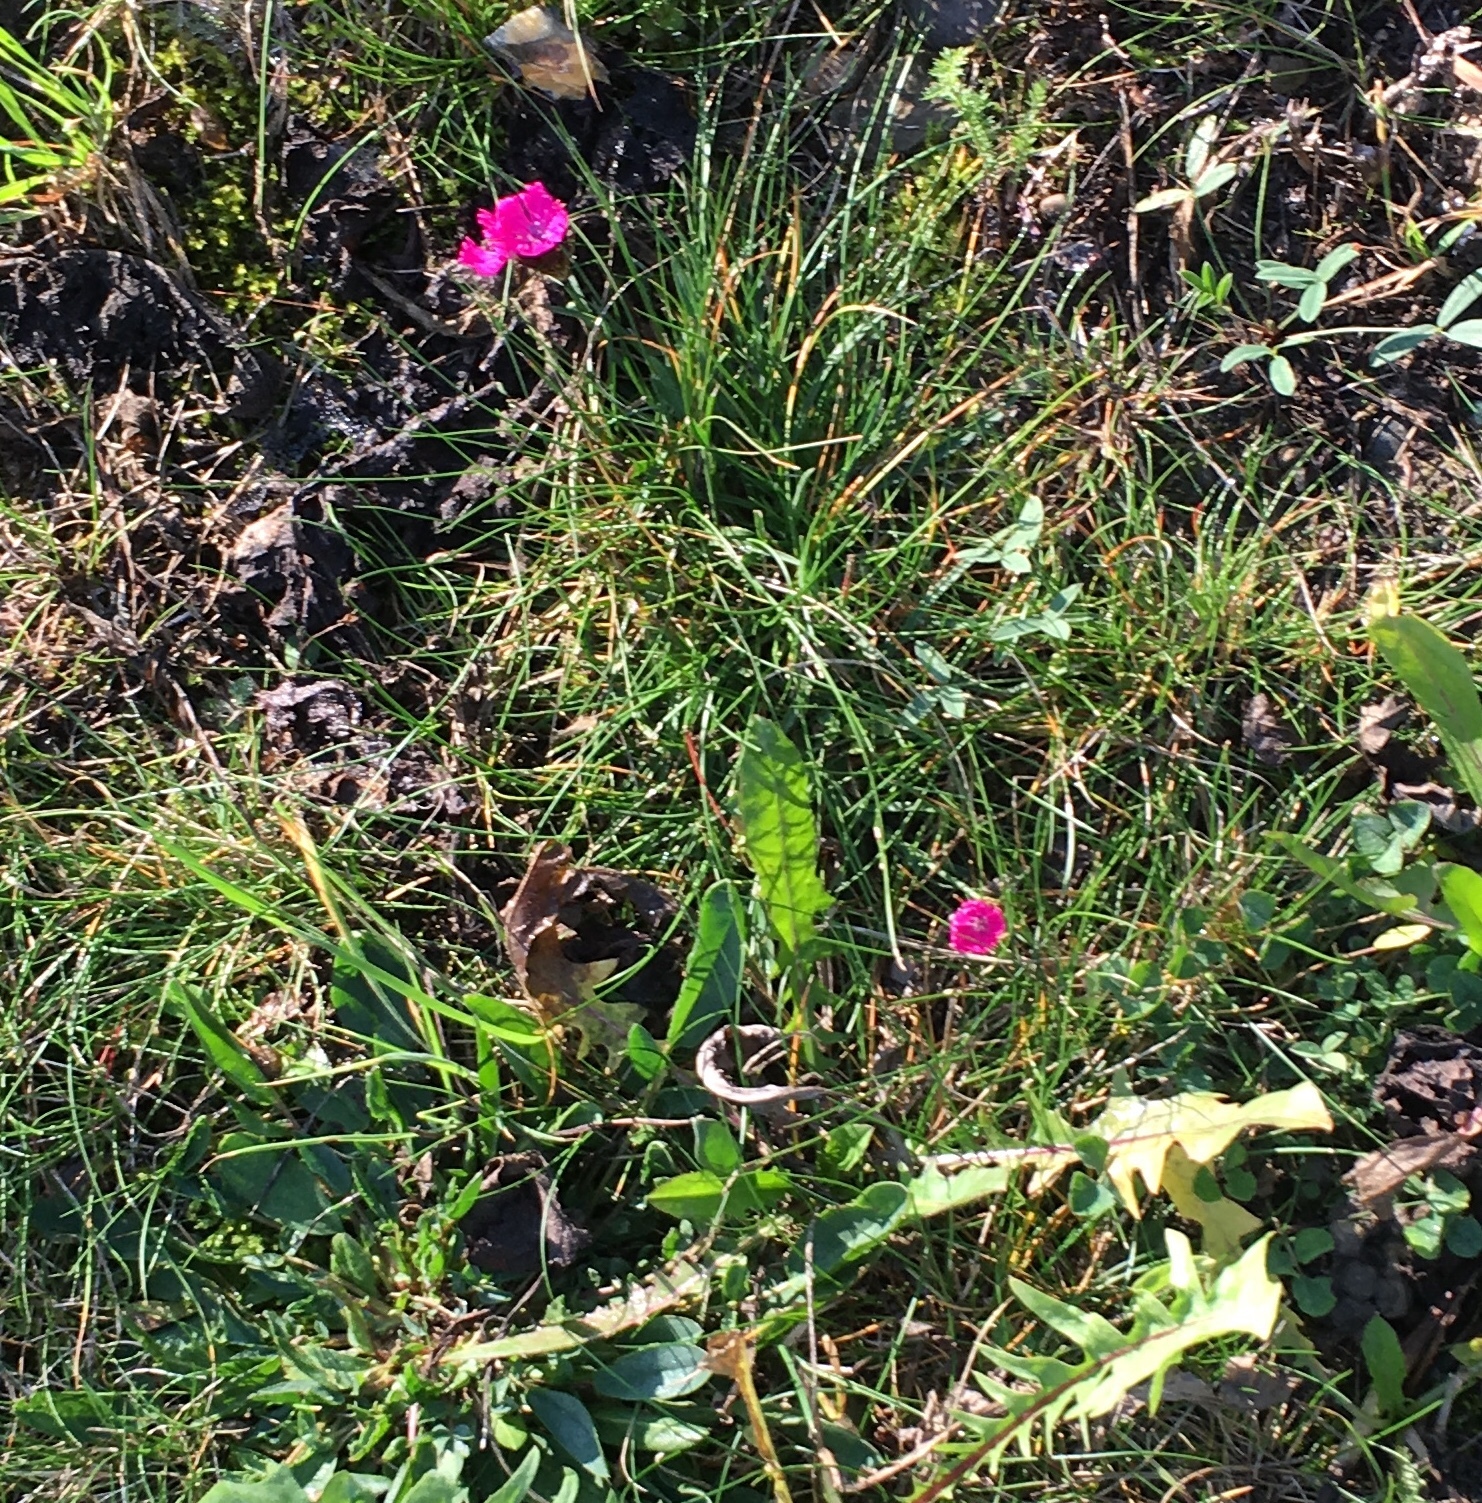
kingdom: Plantae
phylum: Tracheophyta
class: Magnoliopsida
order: Caryophyllales
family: Caryophyllaceae
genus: Dianthus
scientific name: Dianthus carthusianorum
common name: Carthusian pink
